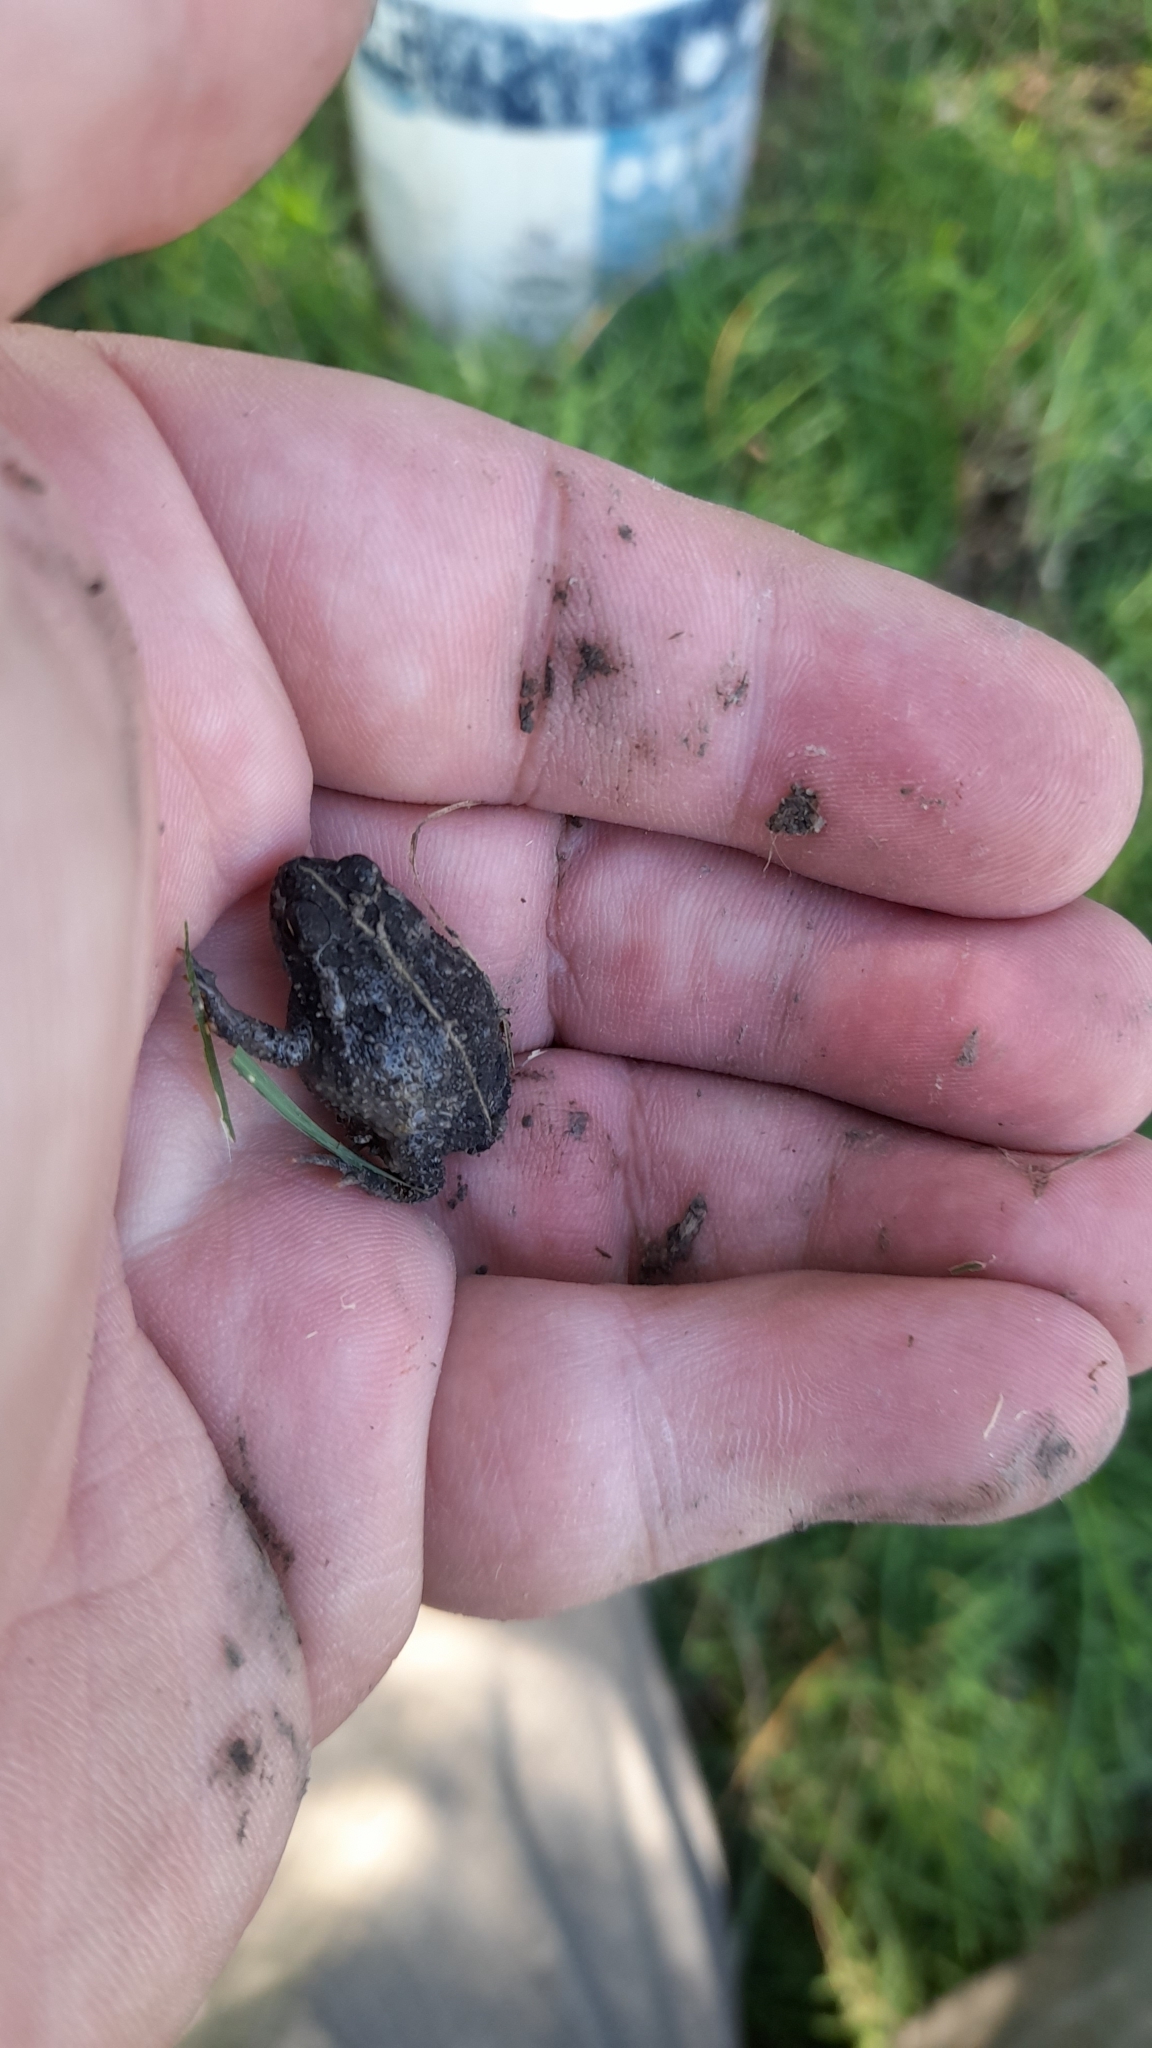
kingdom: Animalia
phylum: Chordata
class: Amphibia
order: Anura
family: Bufonidae
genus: Rhinella
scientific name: Rhinella dorbignyi
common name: D´orbigny’s toad
